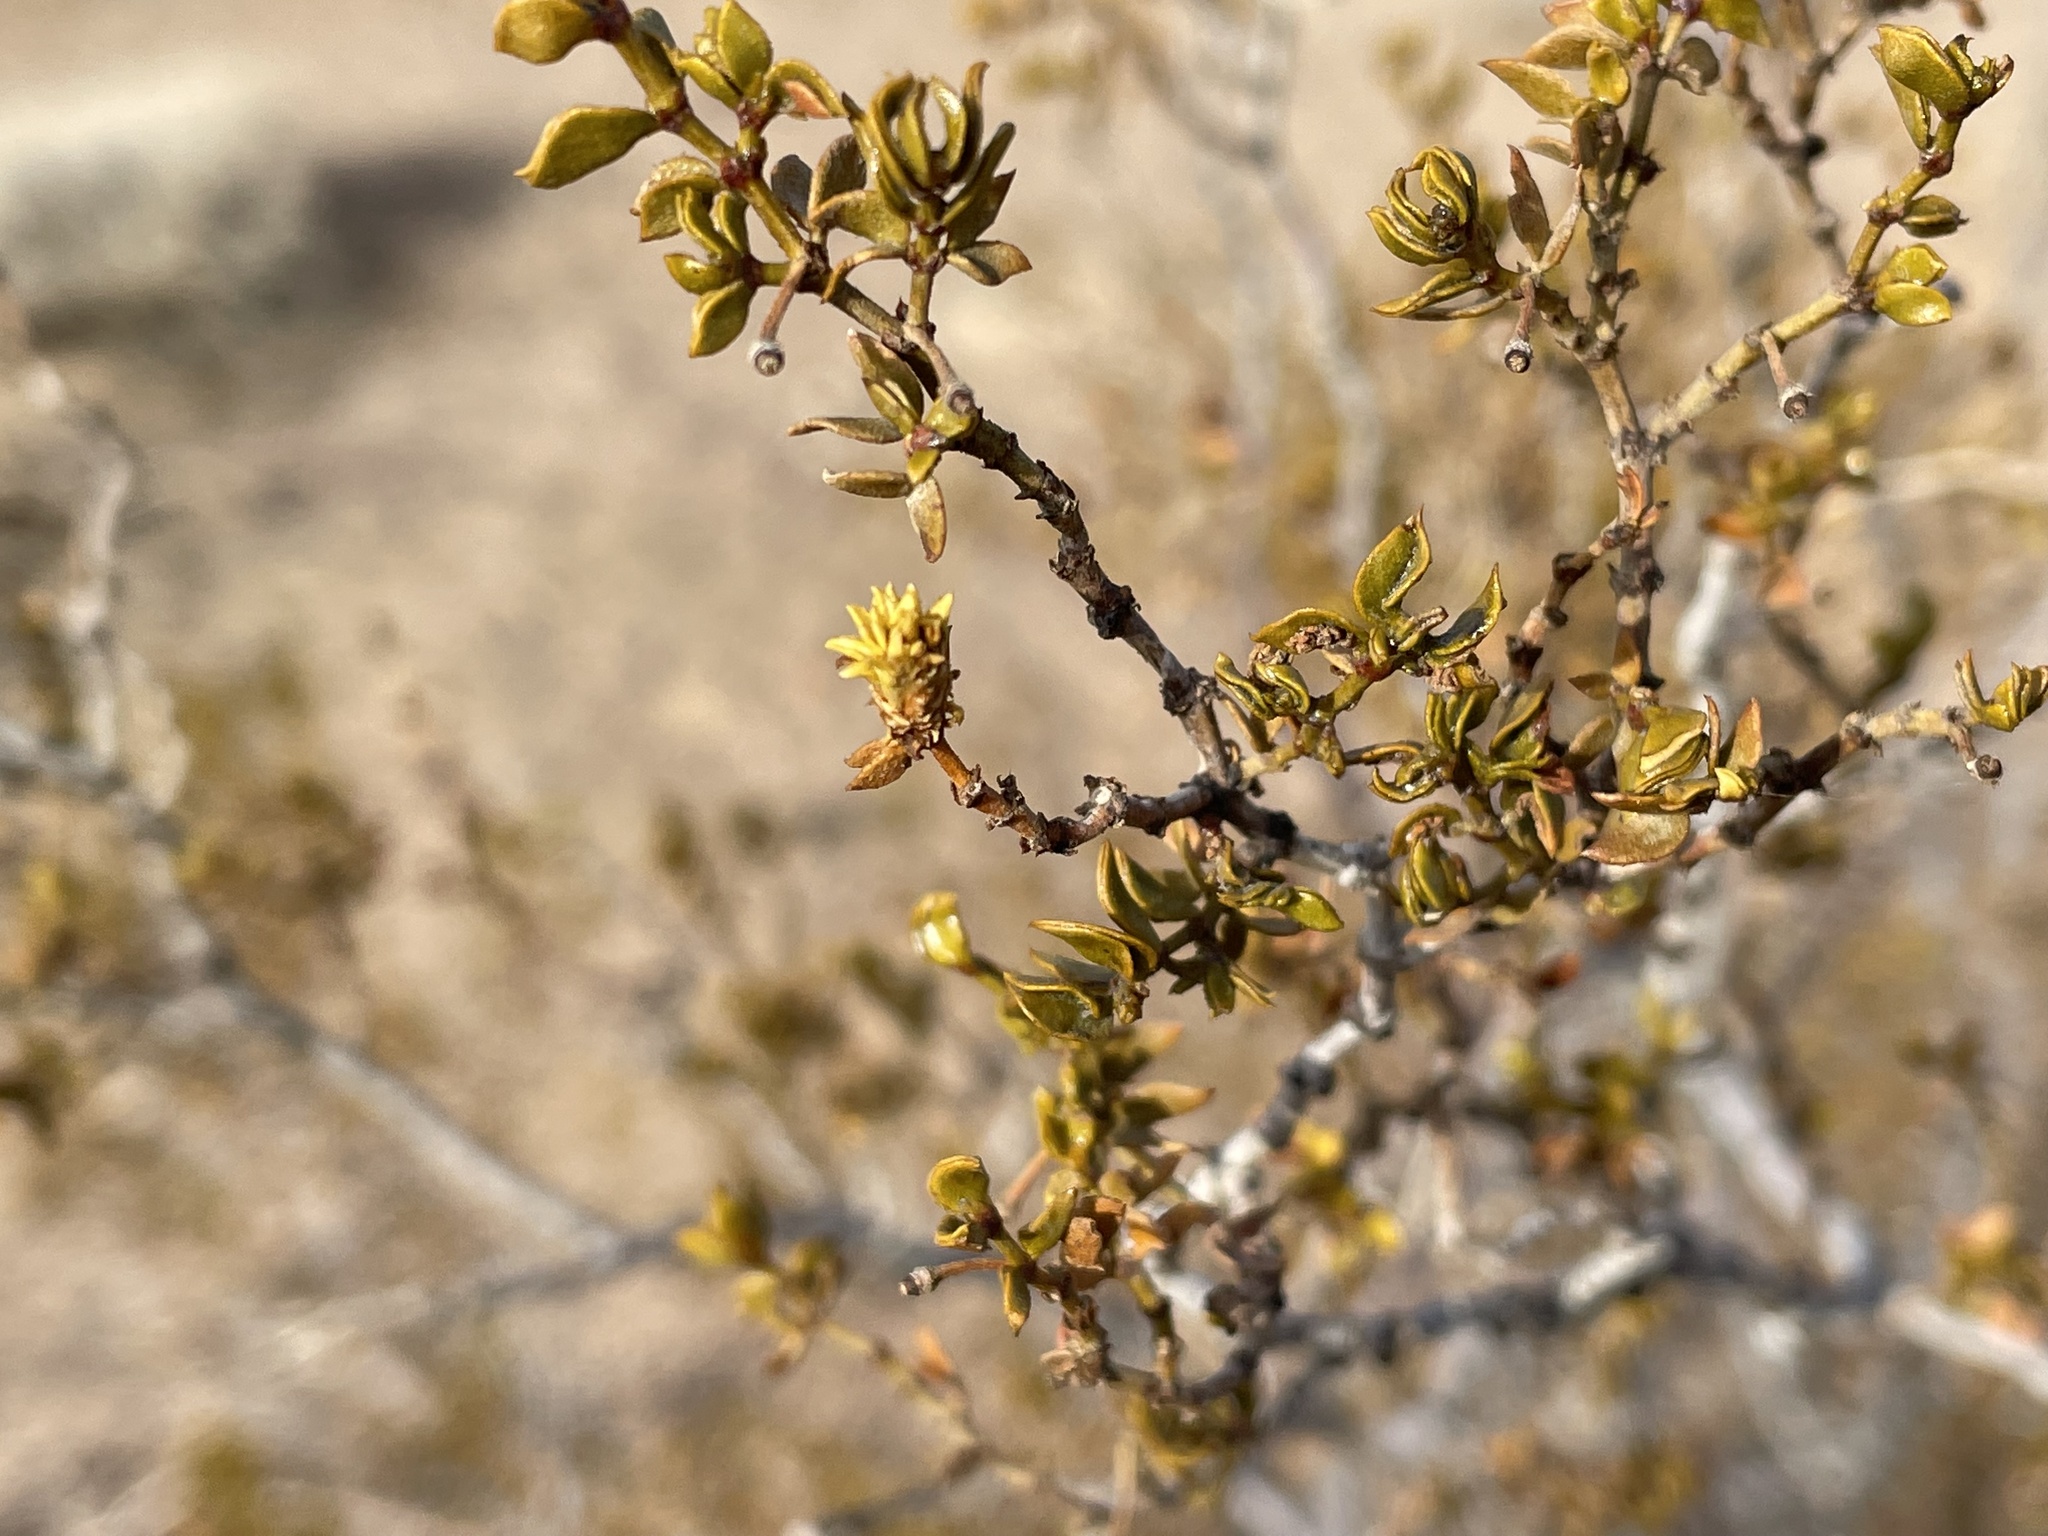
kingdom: Animalia
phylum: Arthropoda
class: Insecta
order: Diptera
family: Cecidomyiidae
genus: Asphondylia
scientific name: Asphondylia rosetta
